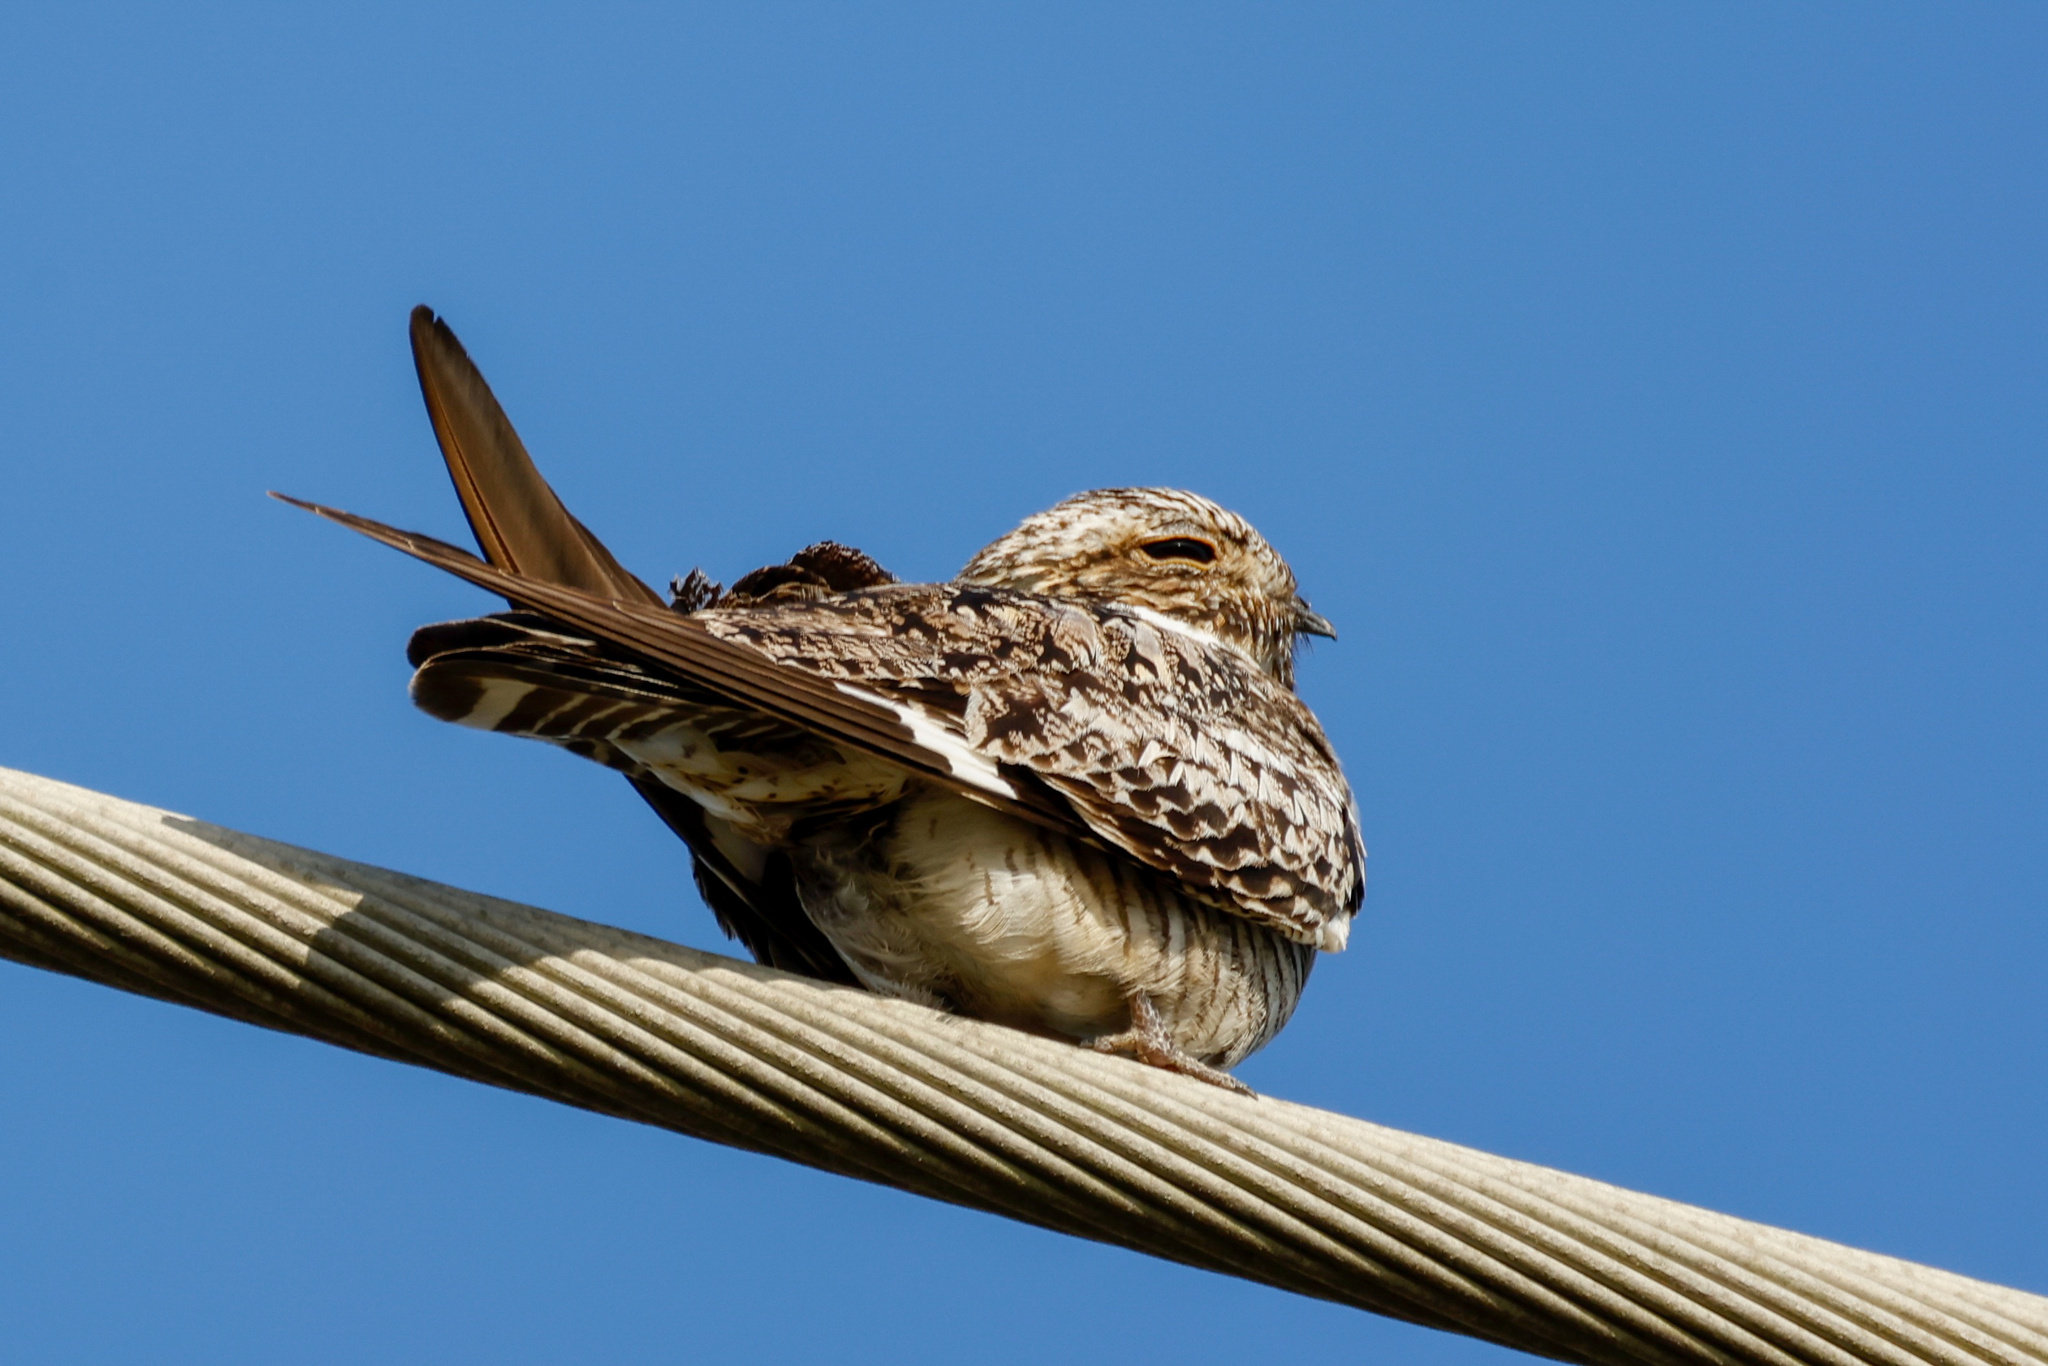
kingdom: Animalia
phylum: Chordata
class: Aves
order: Caprimulgiformes
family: Caprimulgidae
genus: Chordeiles
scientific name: Chordeiles minor
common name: Common nighthawk
